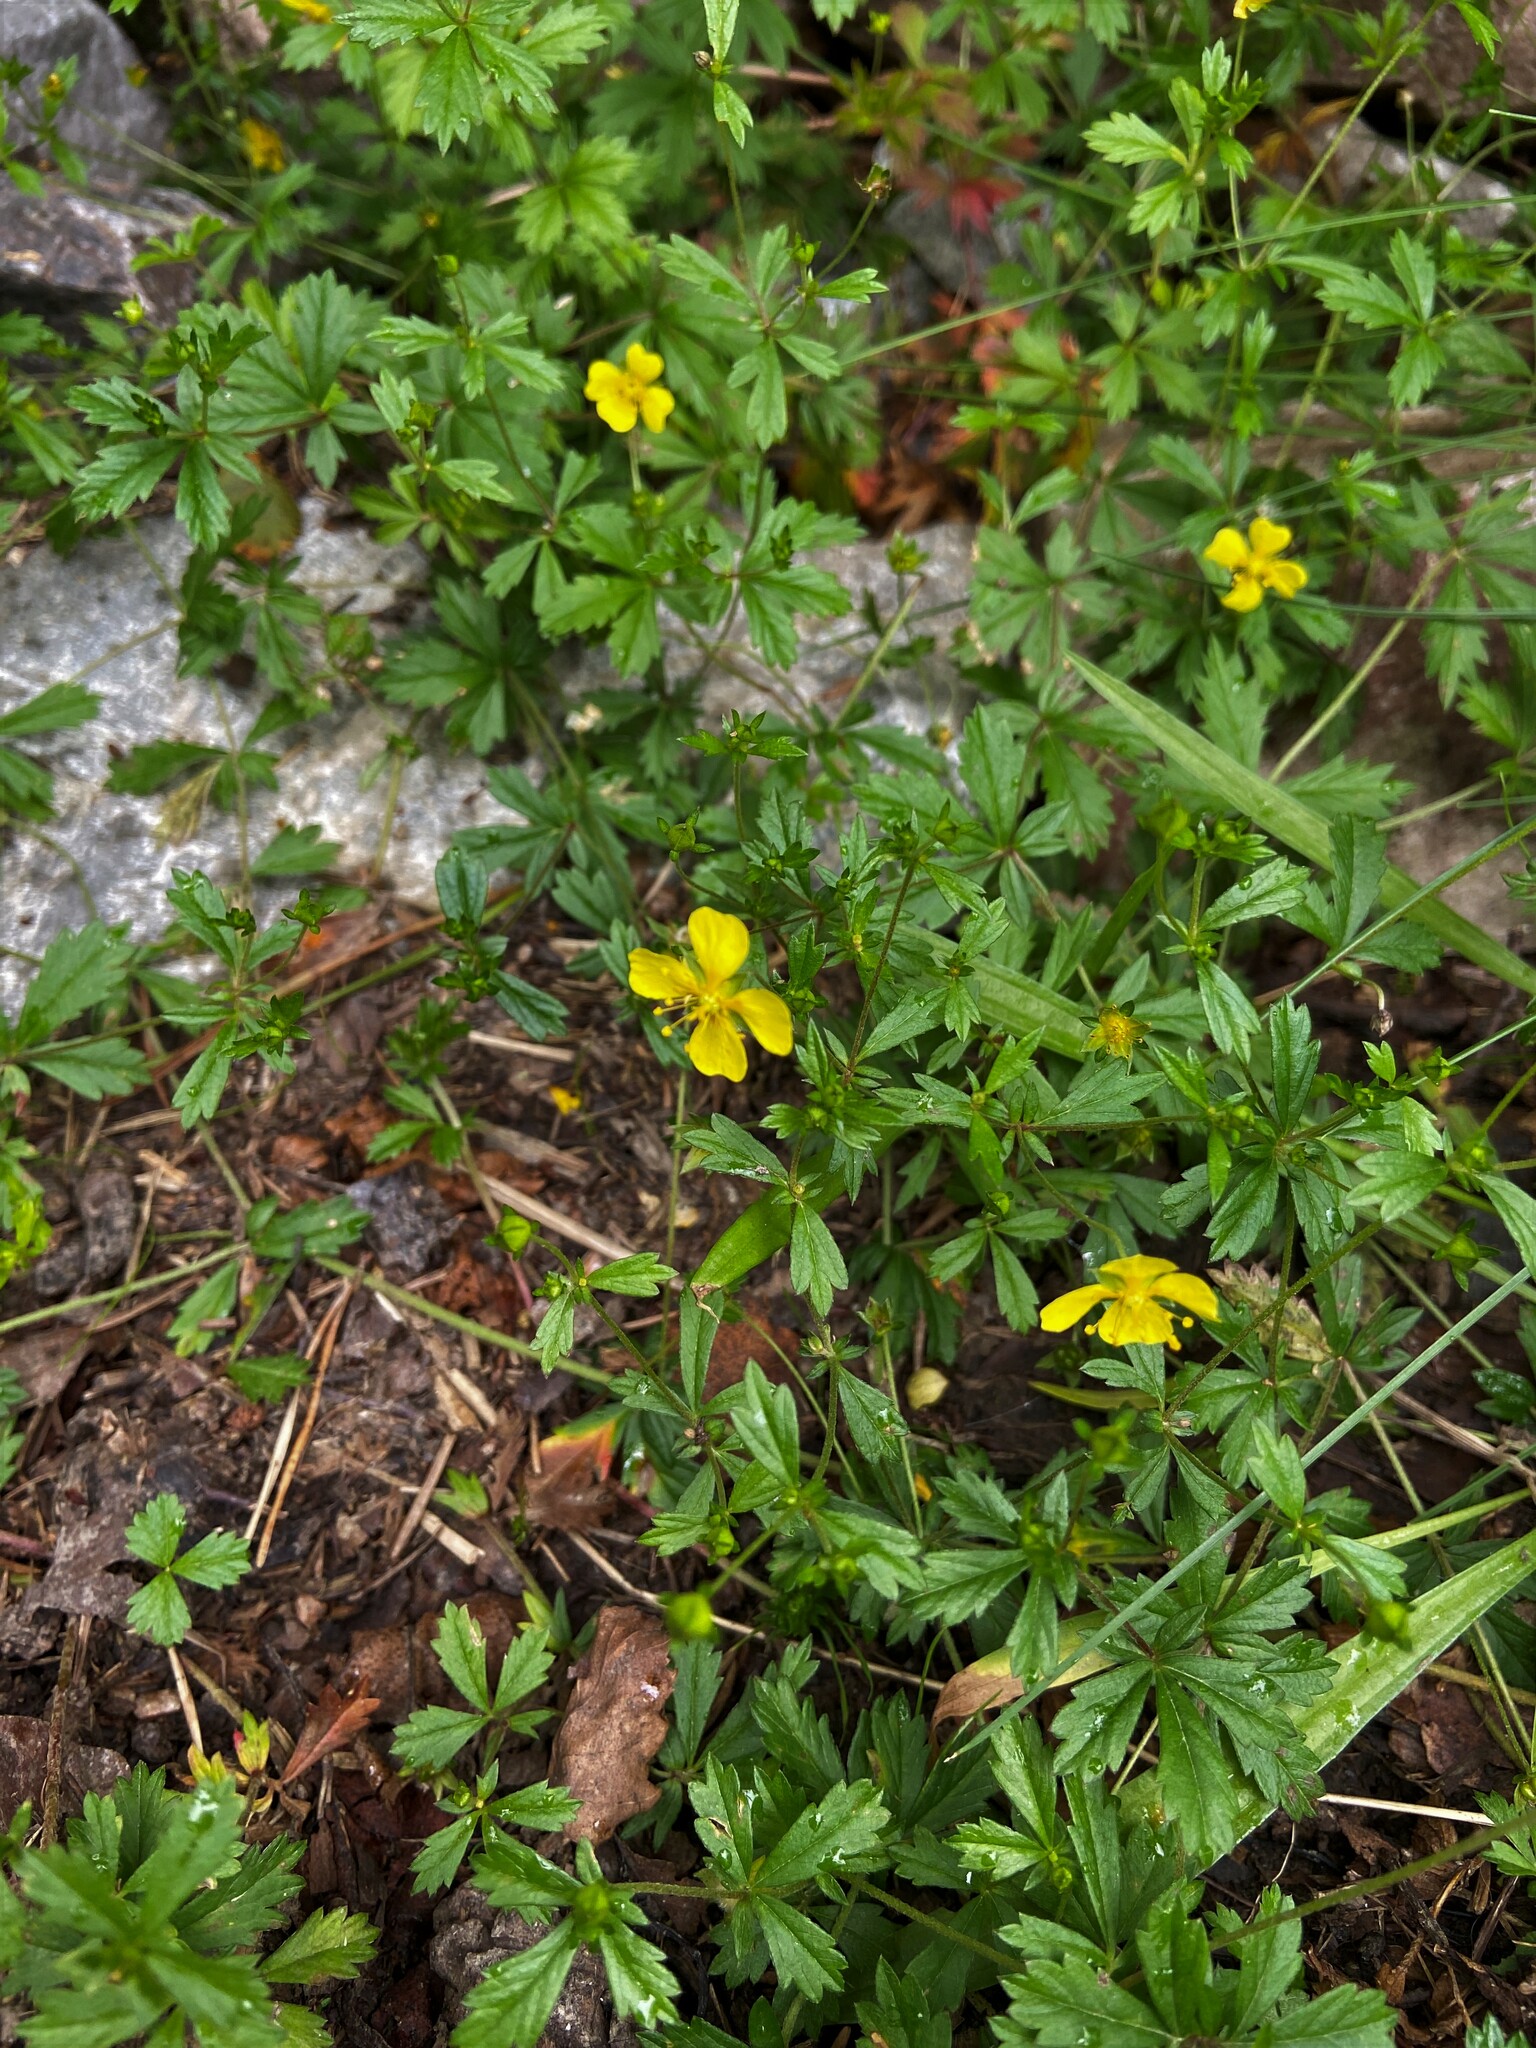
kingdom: Plantae
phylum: Tracheophyta
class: Magnoliopsida
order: Rosales
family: Rosaceae
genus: Potentilla
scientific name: Potentilla erecta
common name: Tormentil
